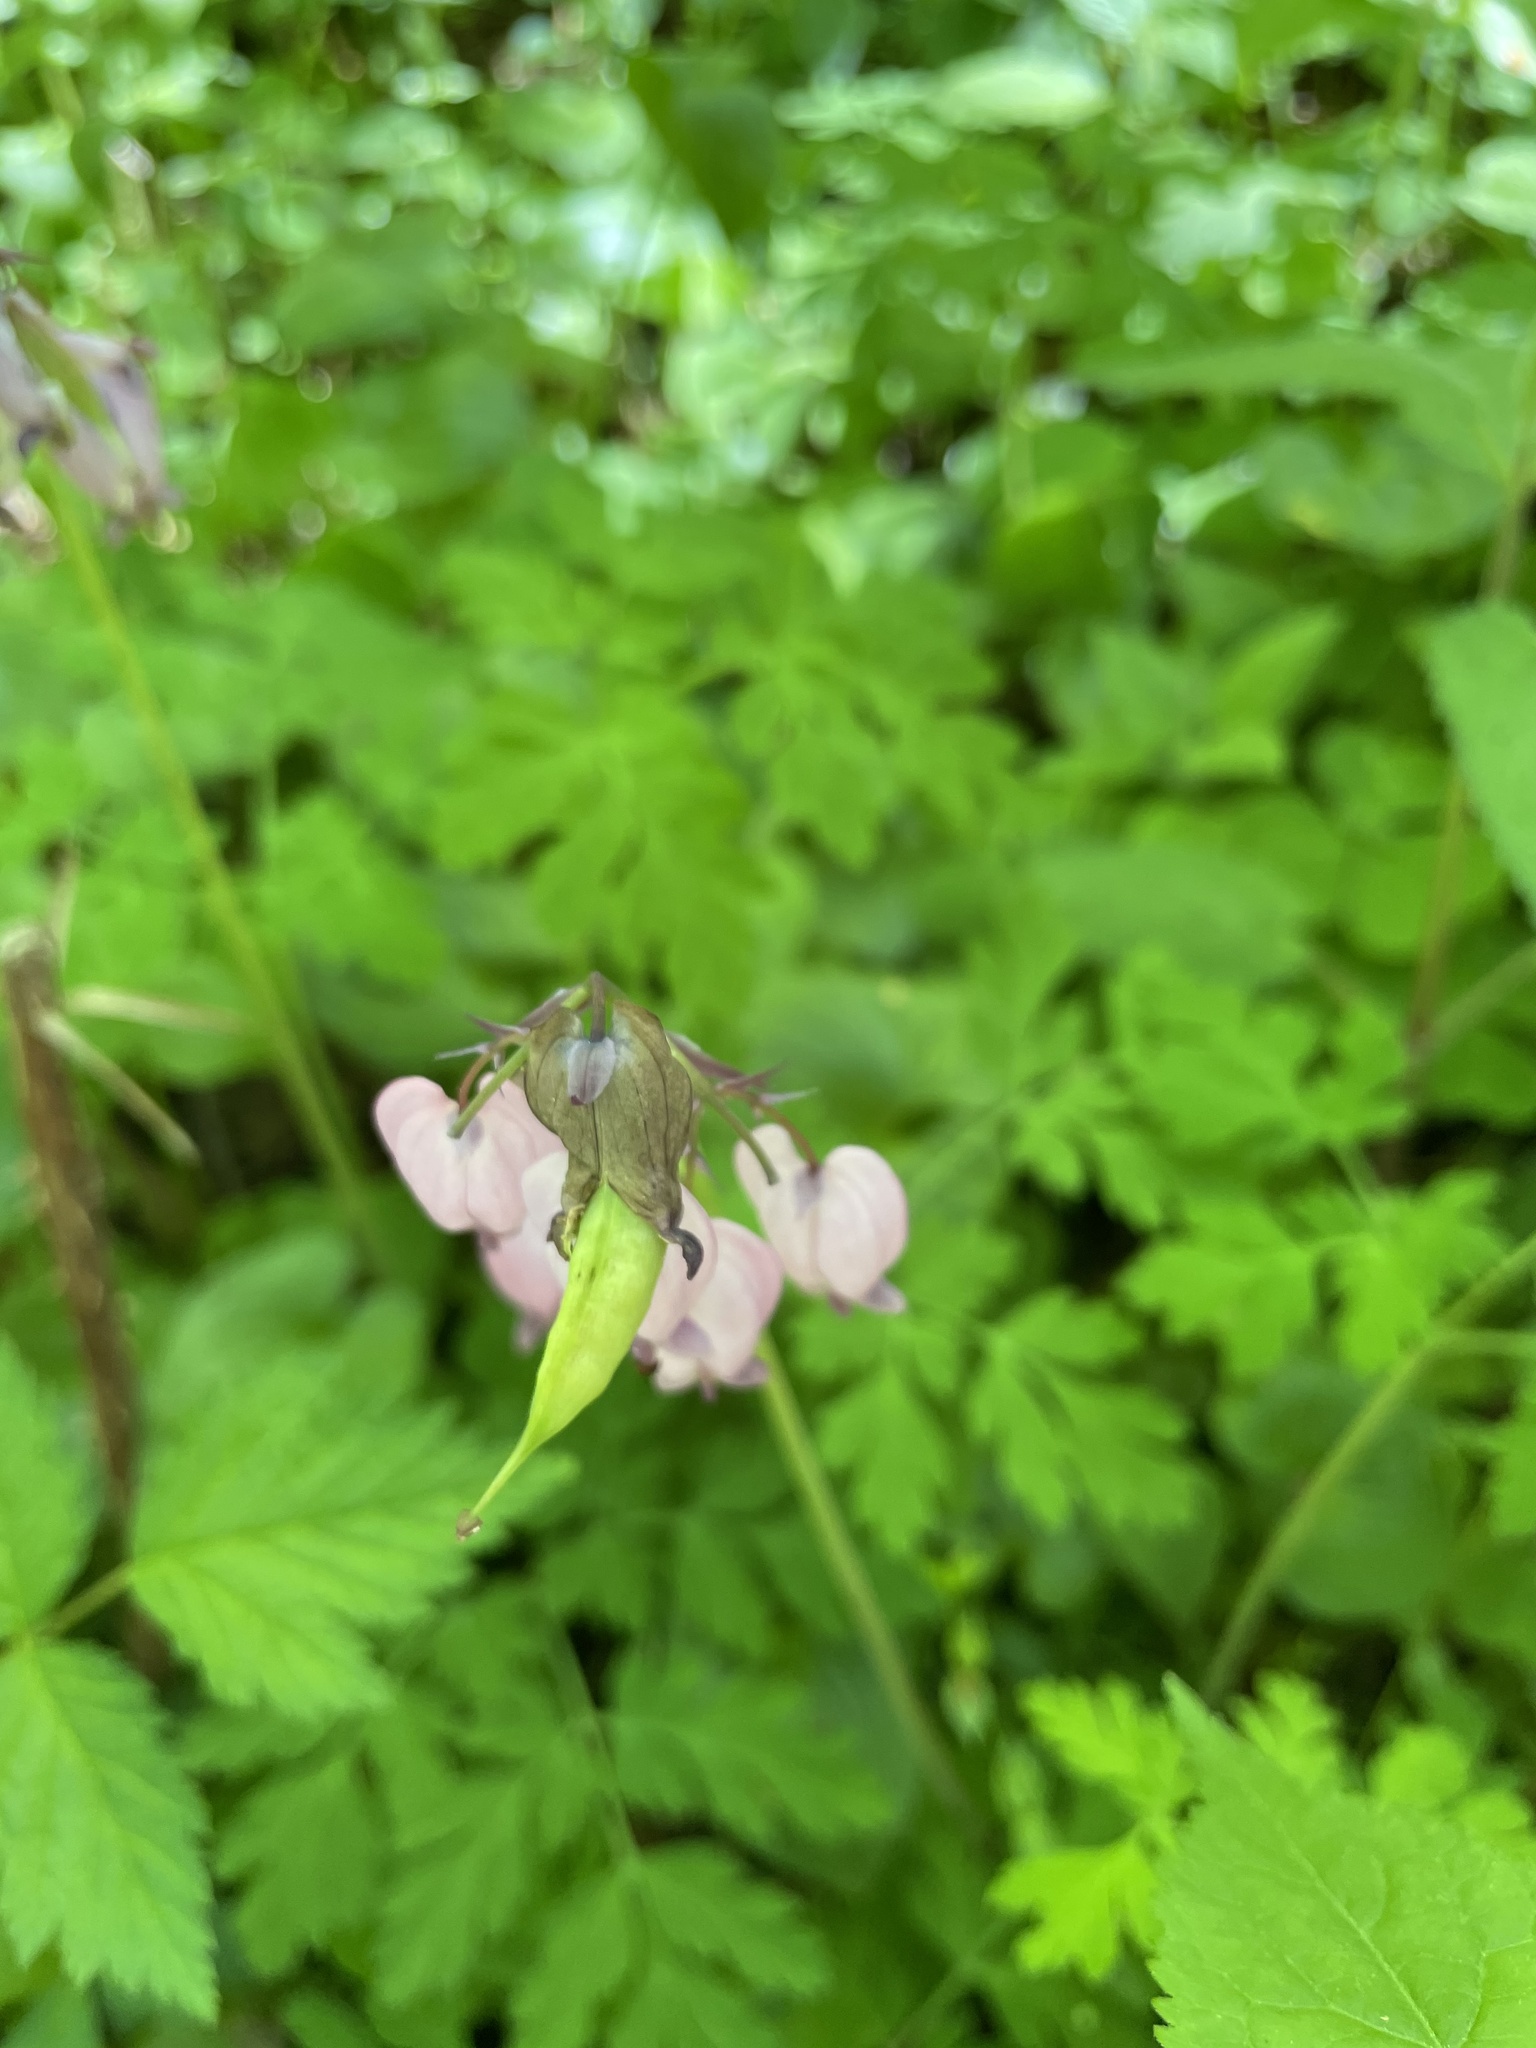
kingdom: Plantae
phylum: Tracheophyta
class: Magnoliopsida
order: Ranunculales
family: Papaveraceae
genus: Dicentra
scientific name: Dicentra formosa
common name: Bleeding-heart
